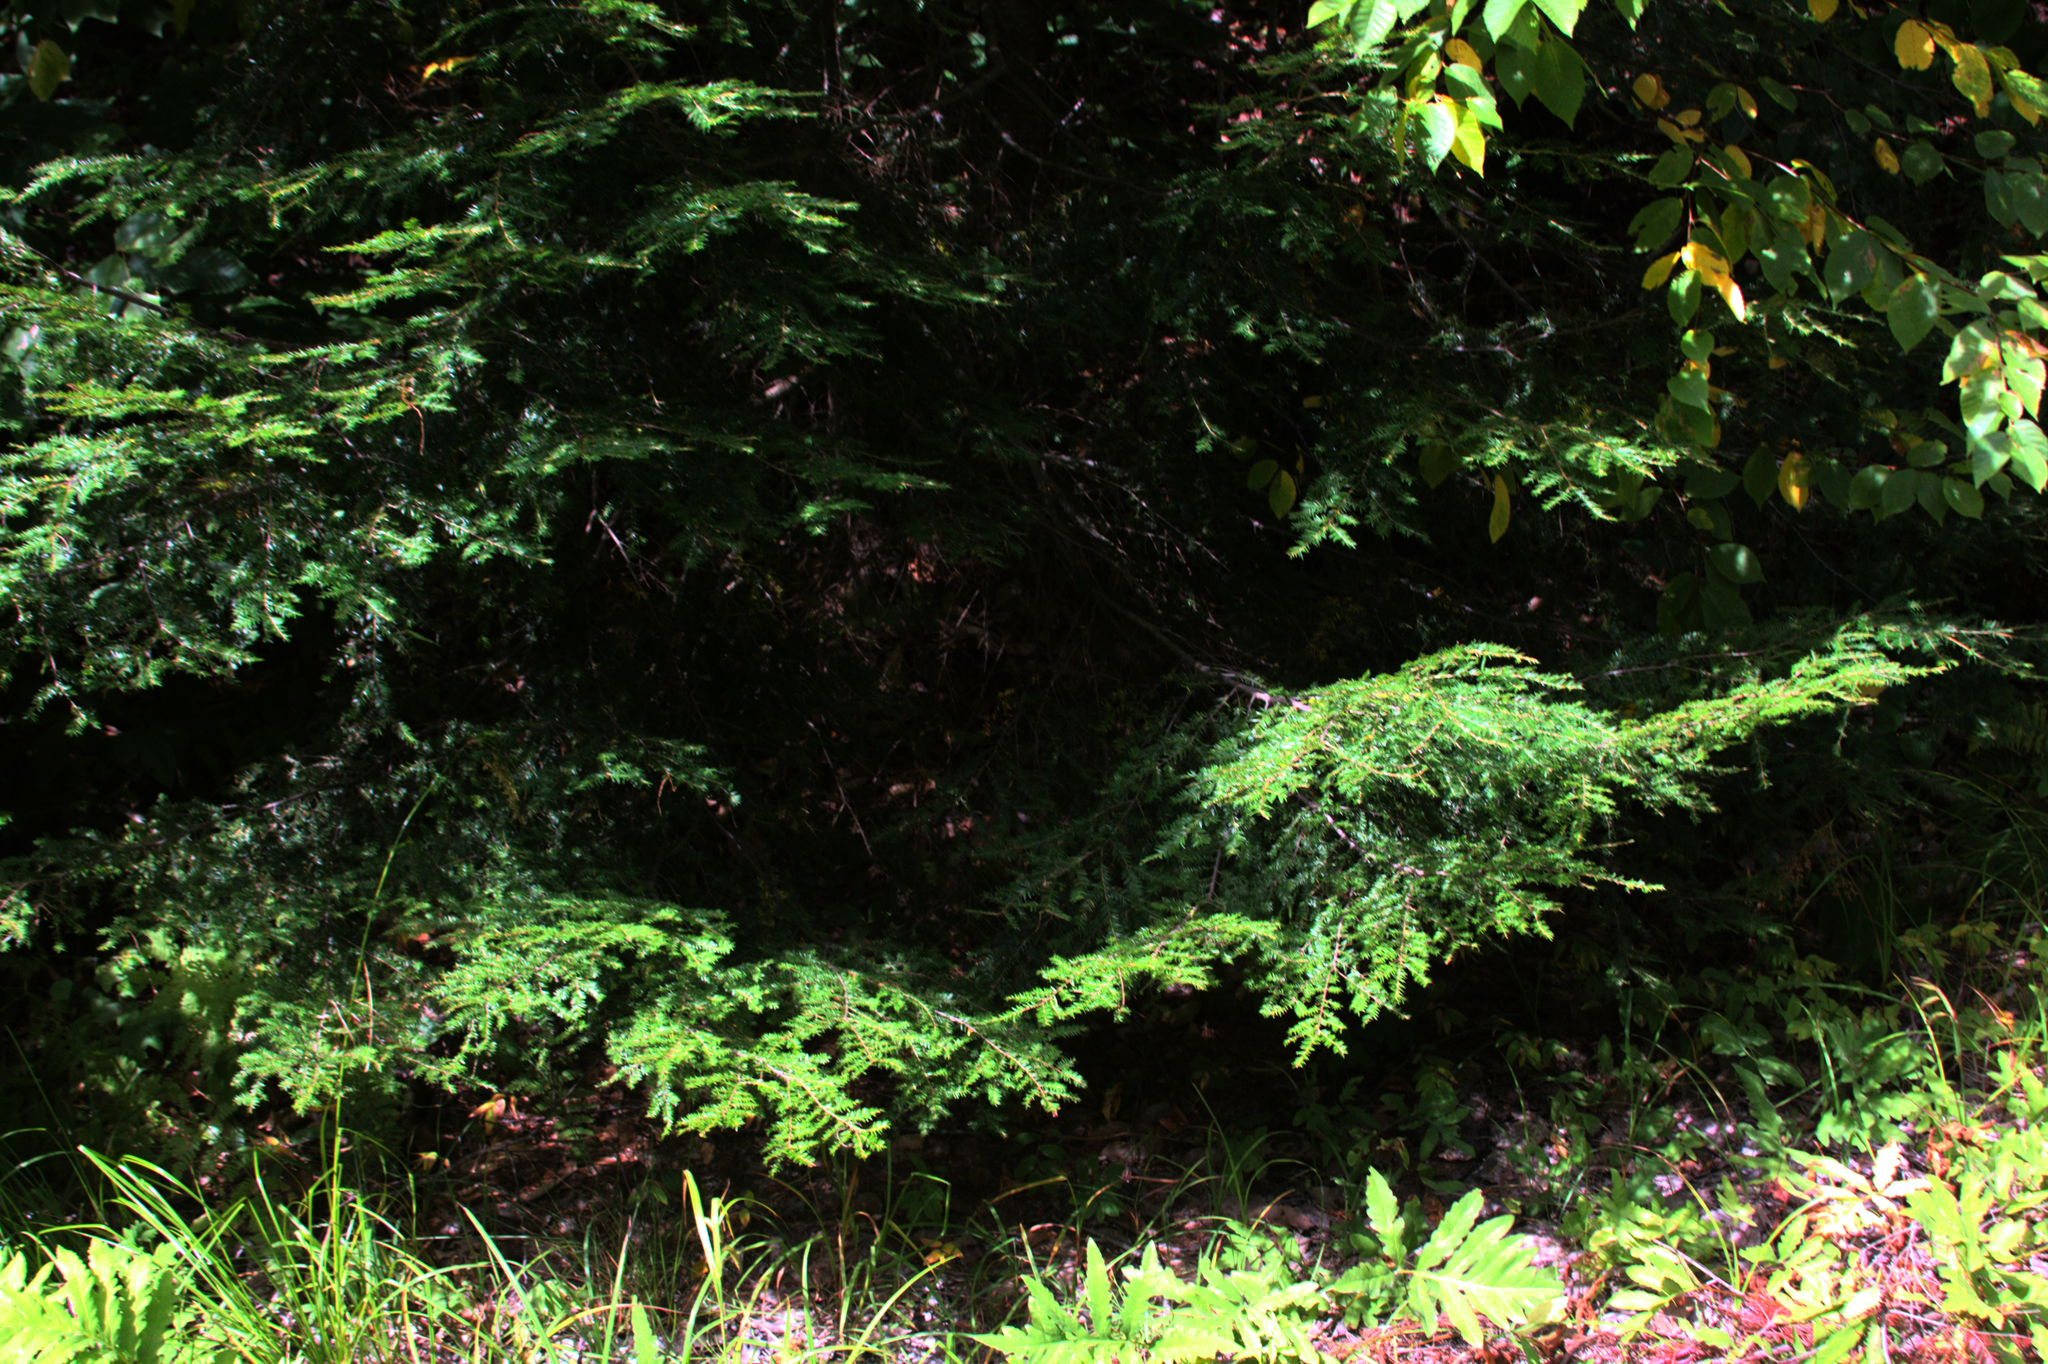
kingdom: Plantae
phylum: Tracheophyta
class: Pinopsida
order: Pinales
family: Pinaceae
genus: Tsuga
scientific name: Tsuga canadensis
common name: Eastern hemlock
